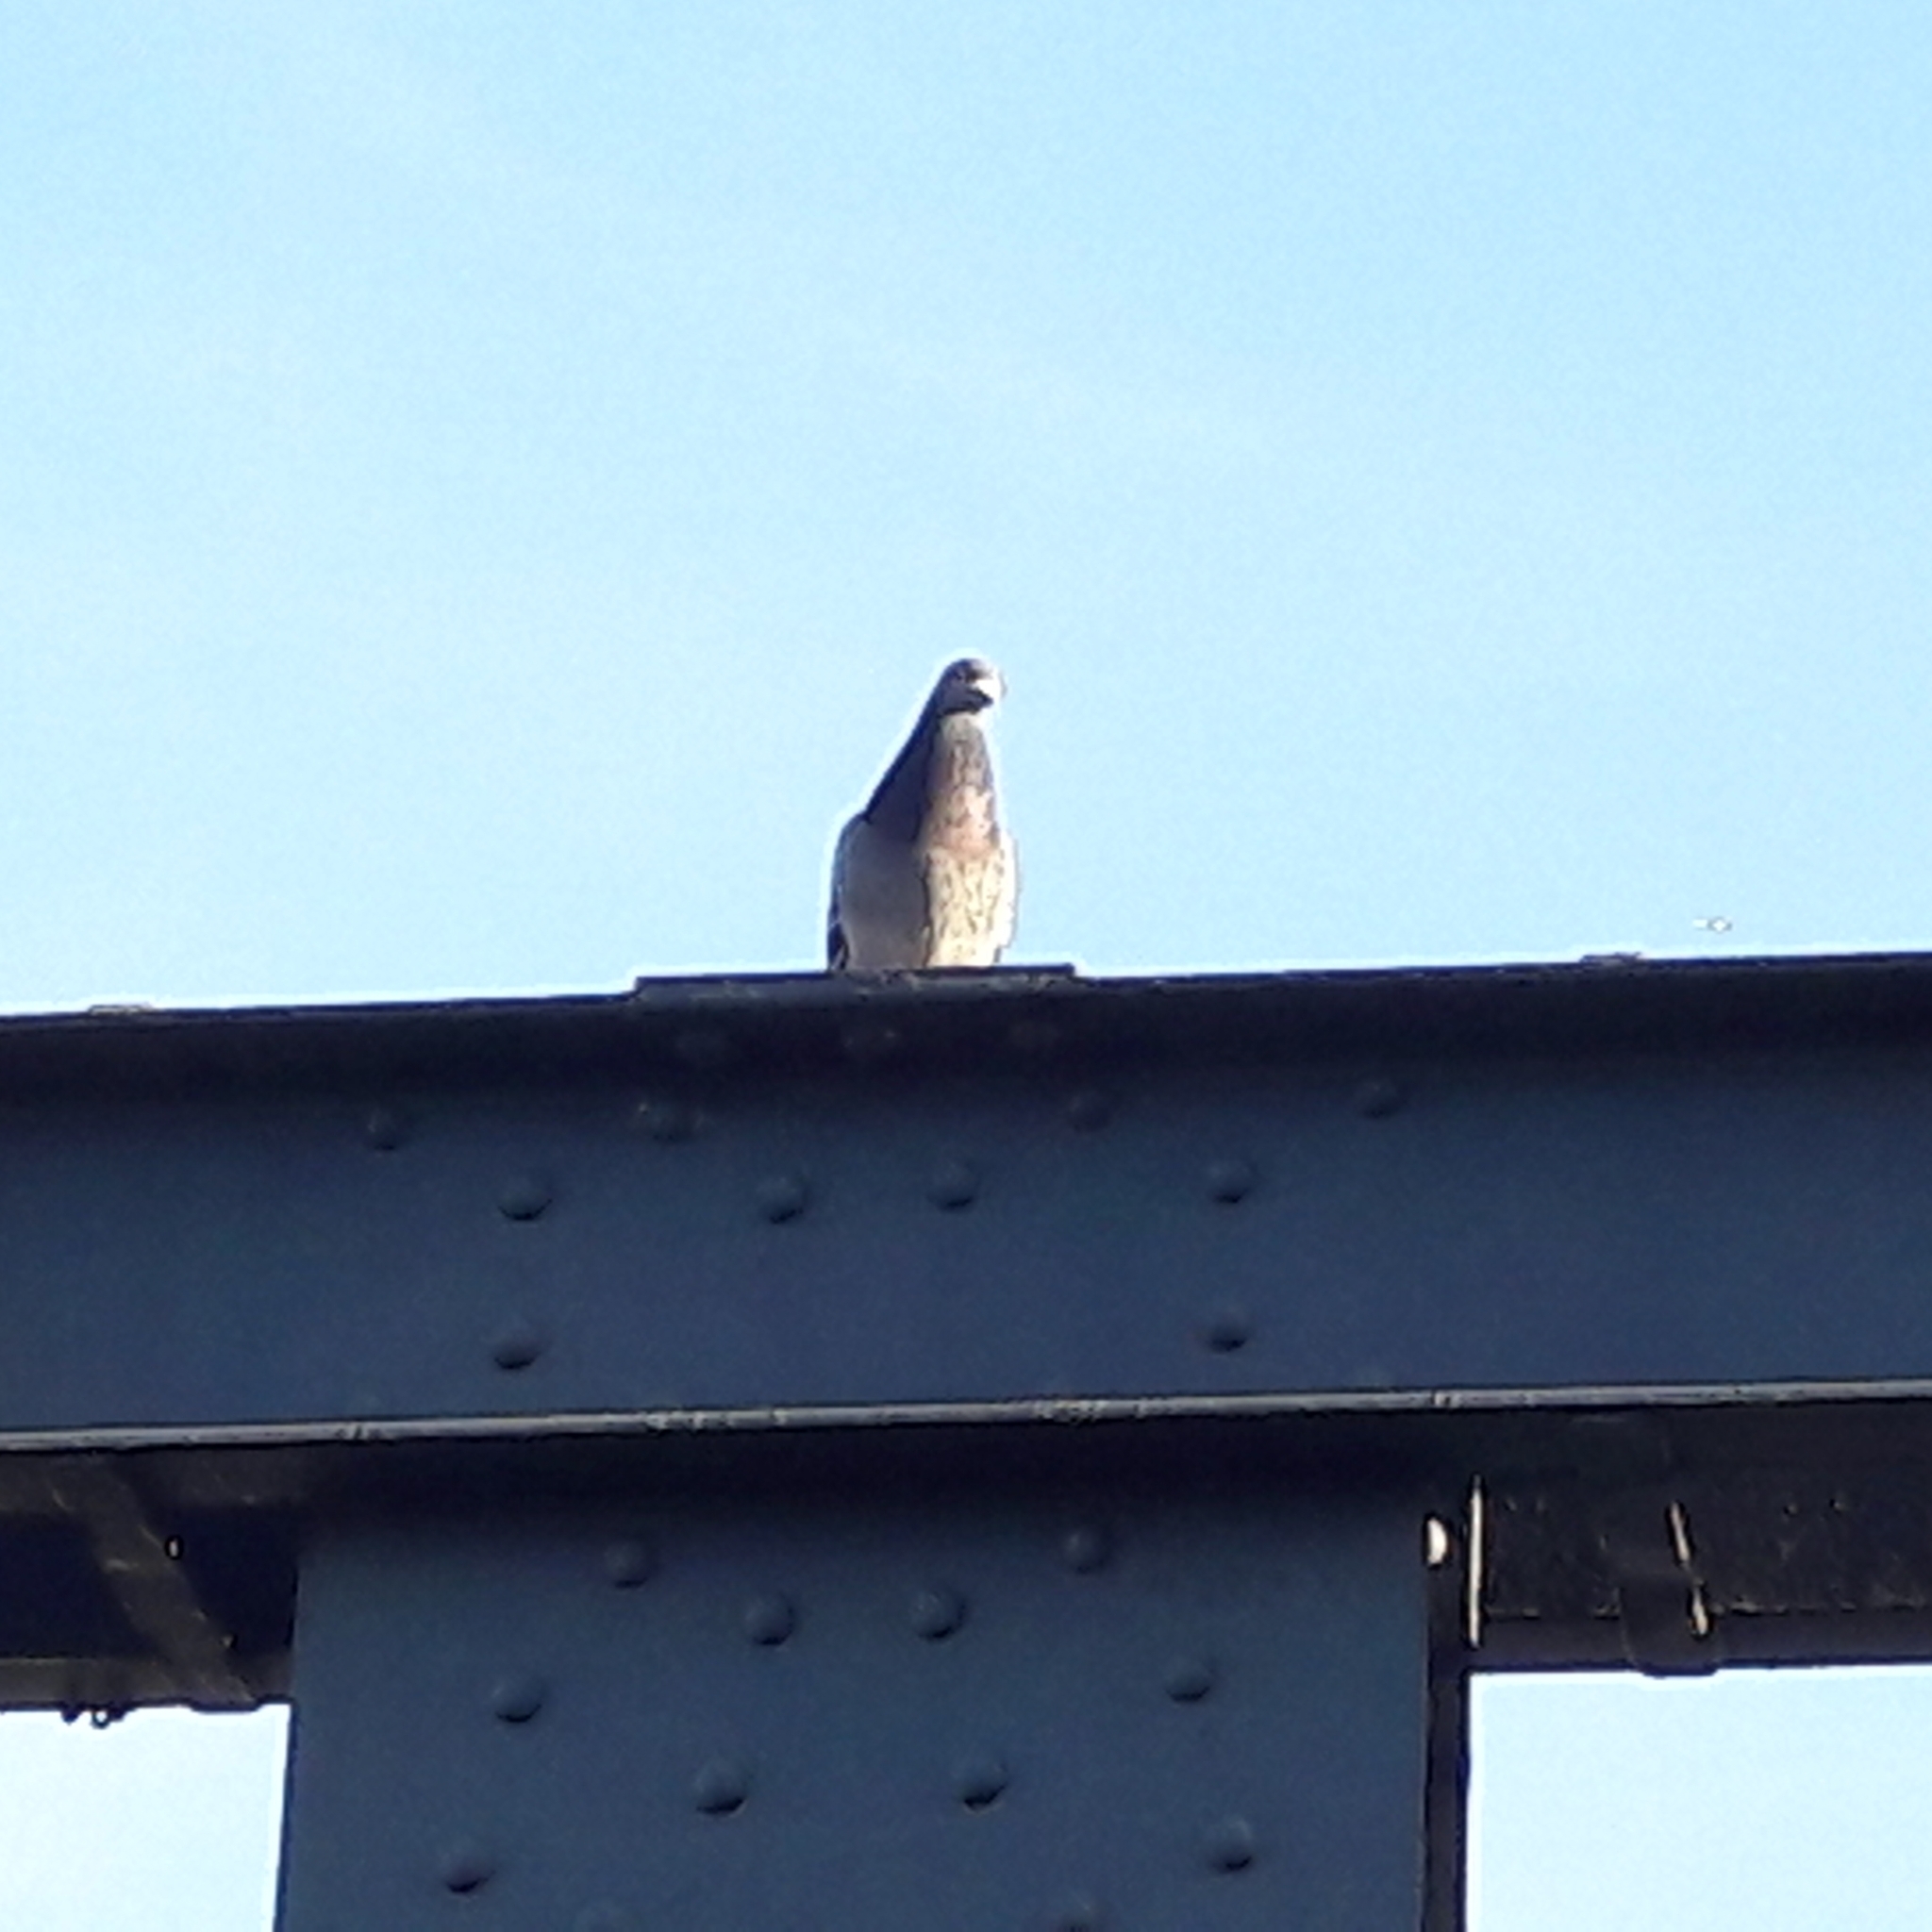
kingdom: Animalia
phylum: Chordata
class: Aves
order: Columbiformes
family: Columbidae
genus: Columba
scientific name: Columba livia
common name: Rock pigeon
